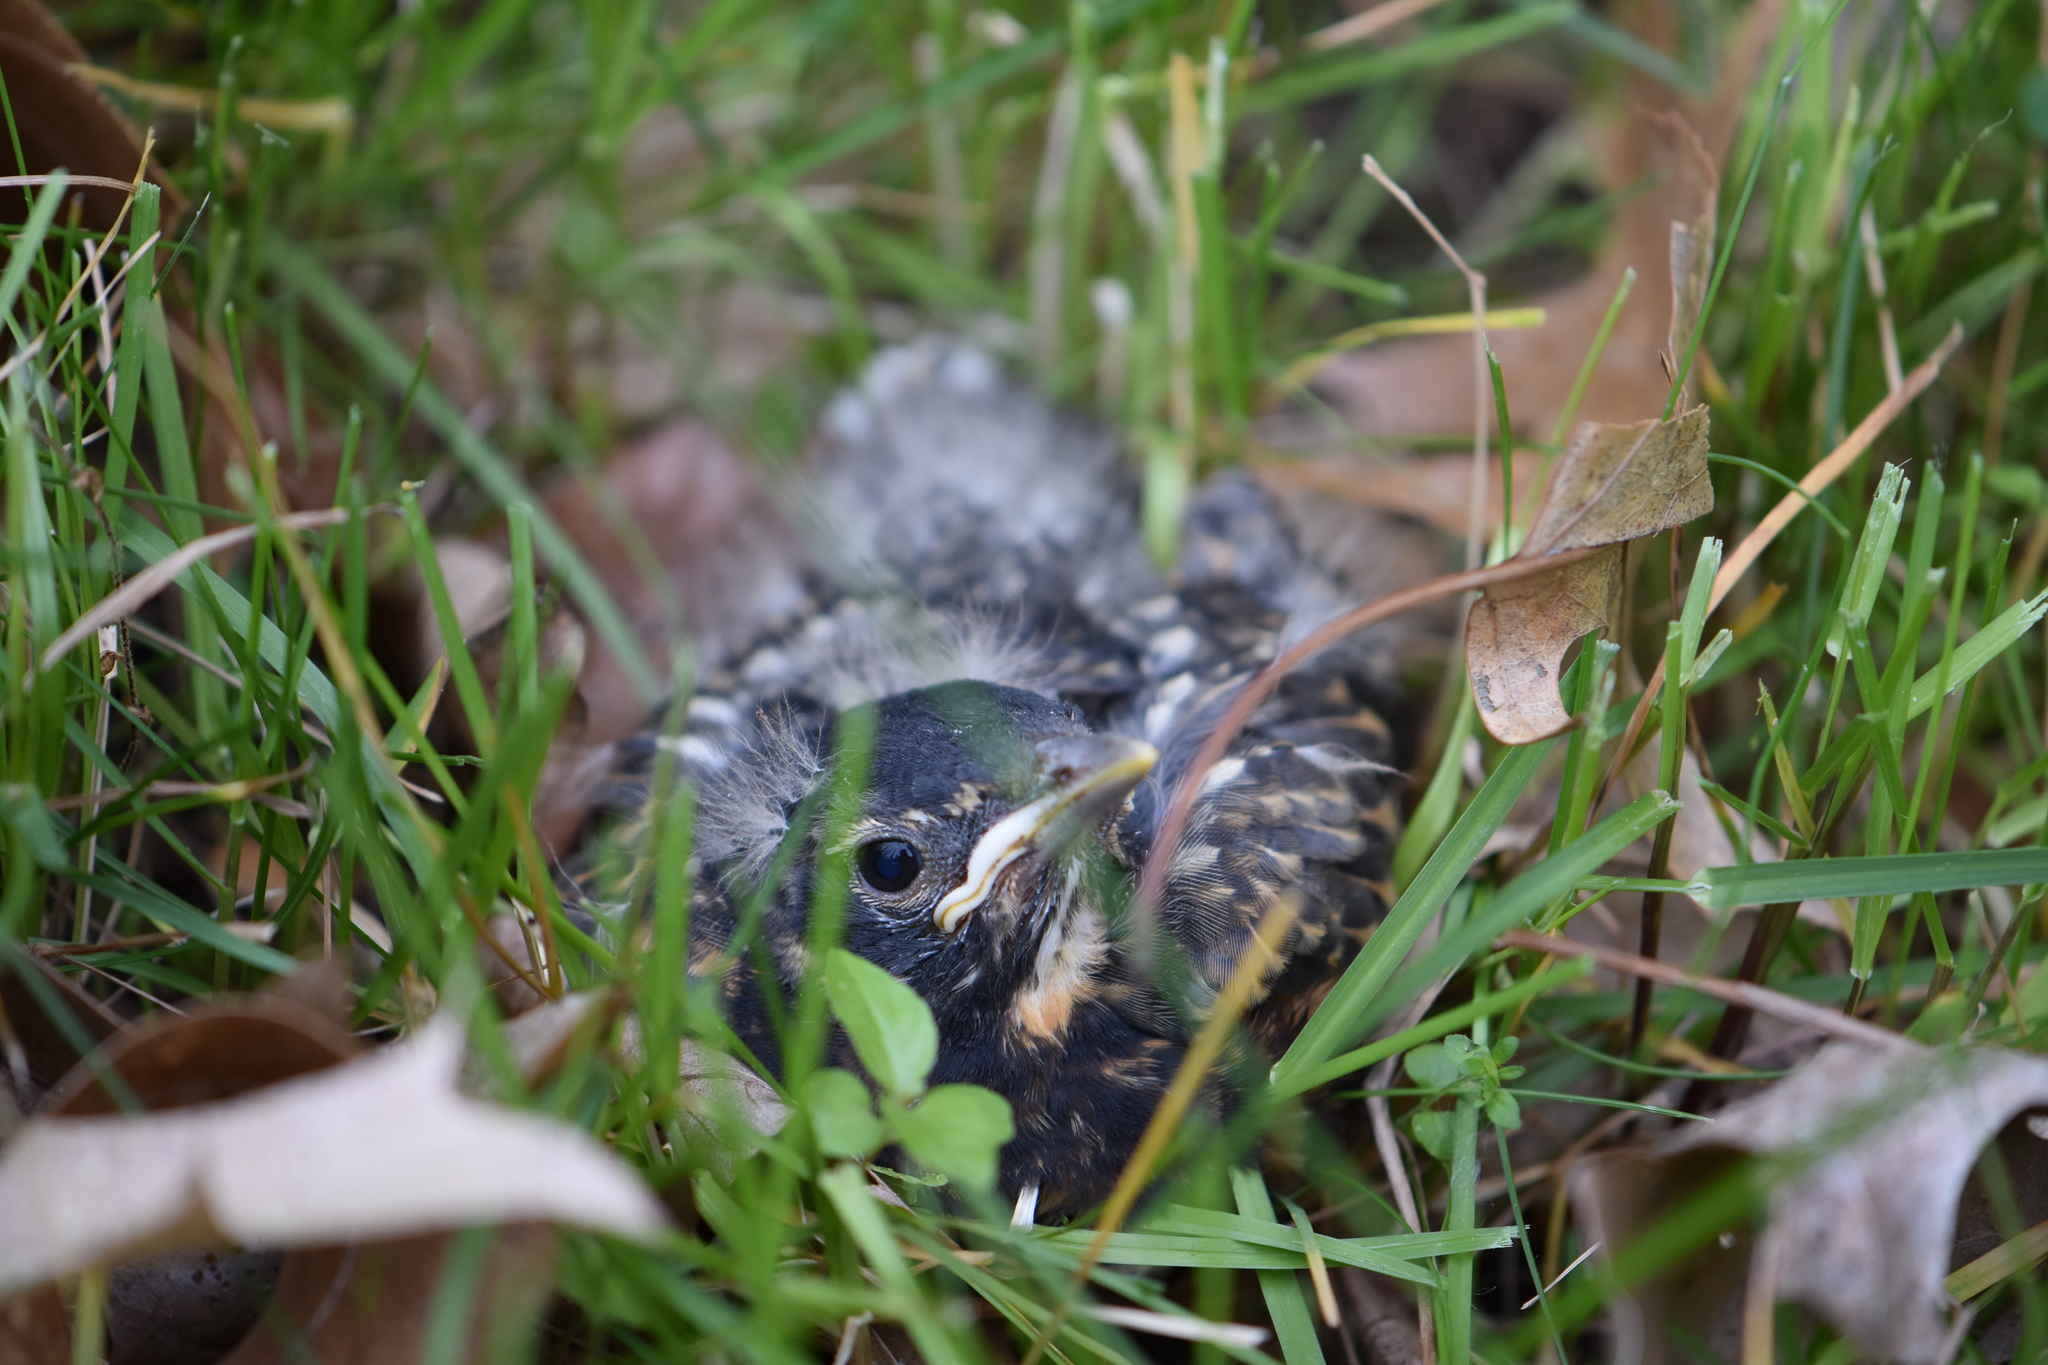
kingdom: Animalia
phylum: Chordata
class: Aves
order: Passeriformes
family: Turdidae
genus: Turdus
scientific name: Turdus migratorius
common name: American robin
